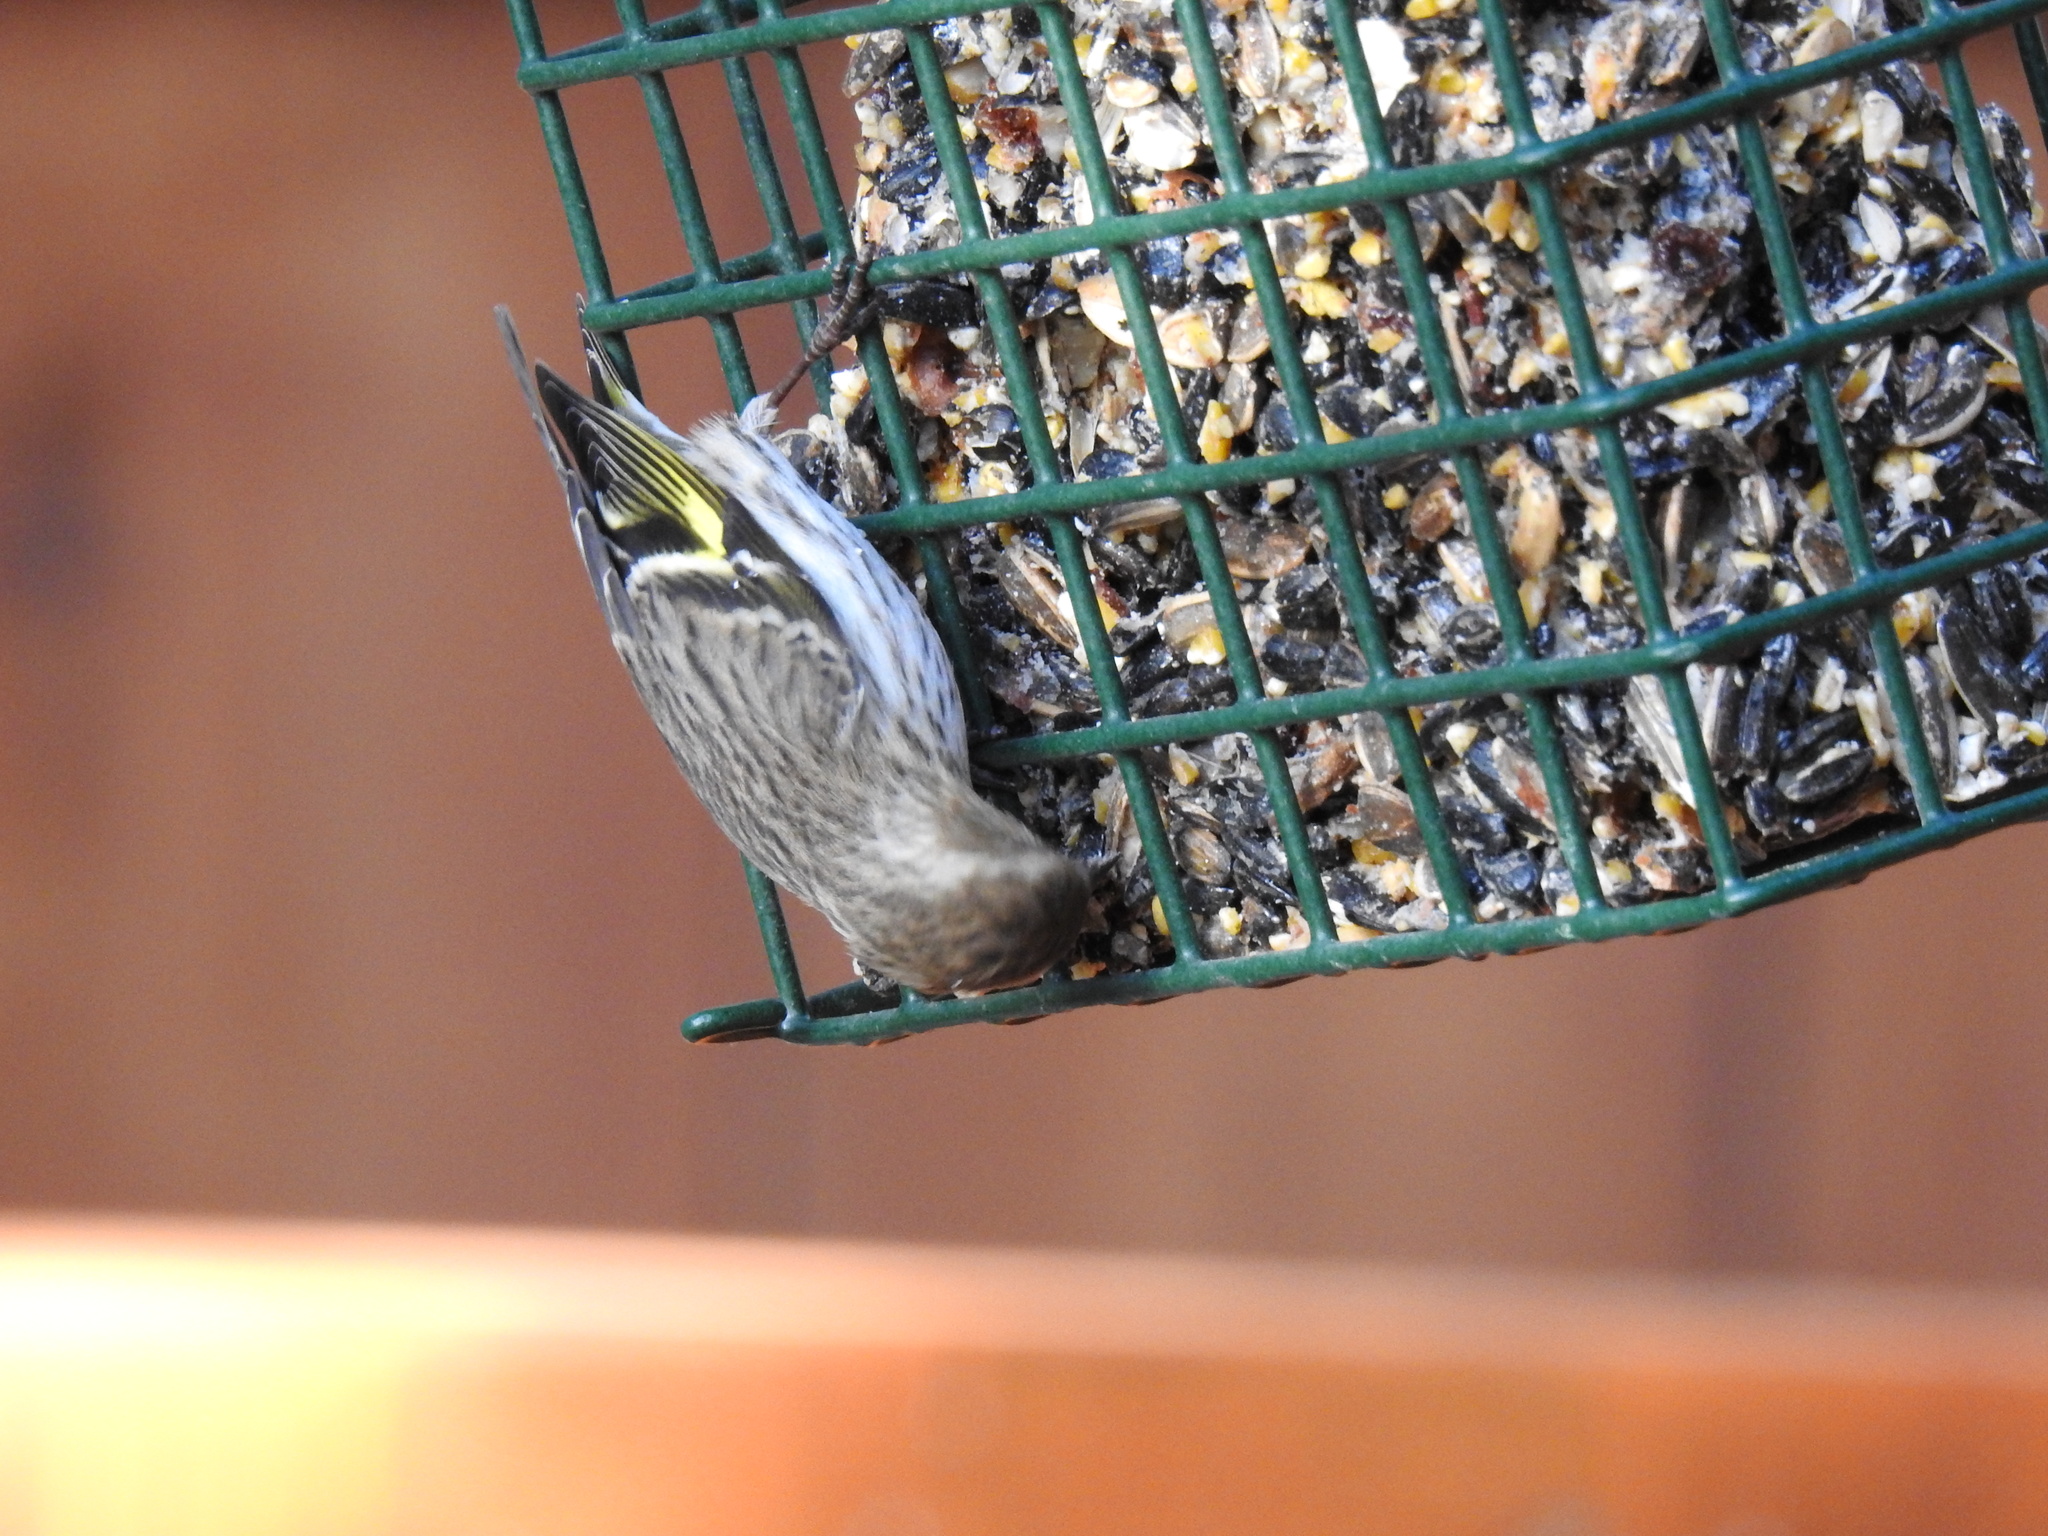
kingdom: Animalia
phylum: Chordata
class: Aves
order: Passeriformes
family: Fringillidae
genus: Spinus
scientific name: Spinus pinus
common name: Pine siskin
